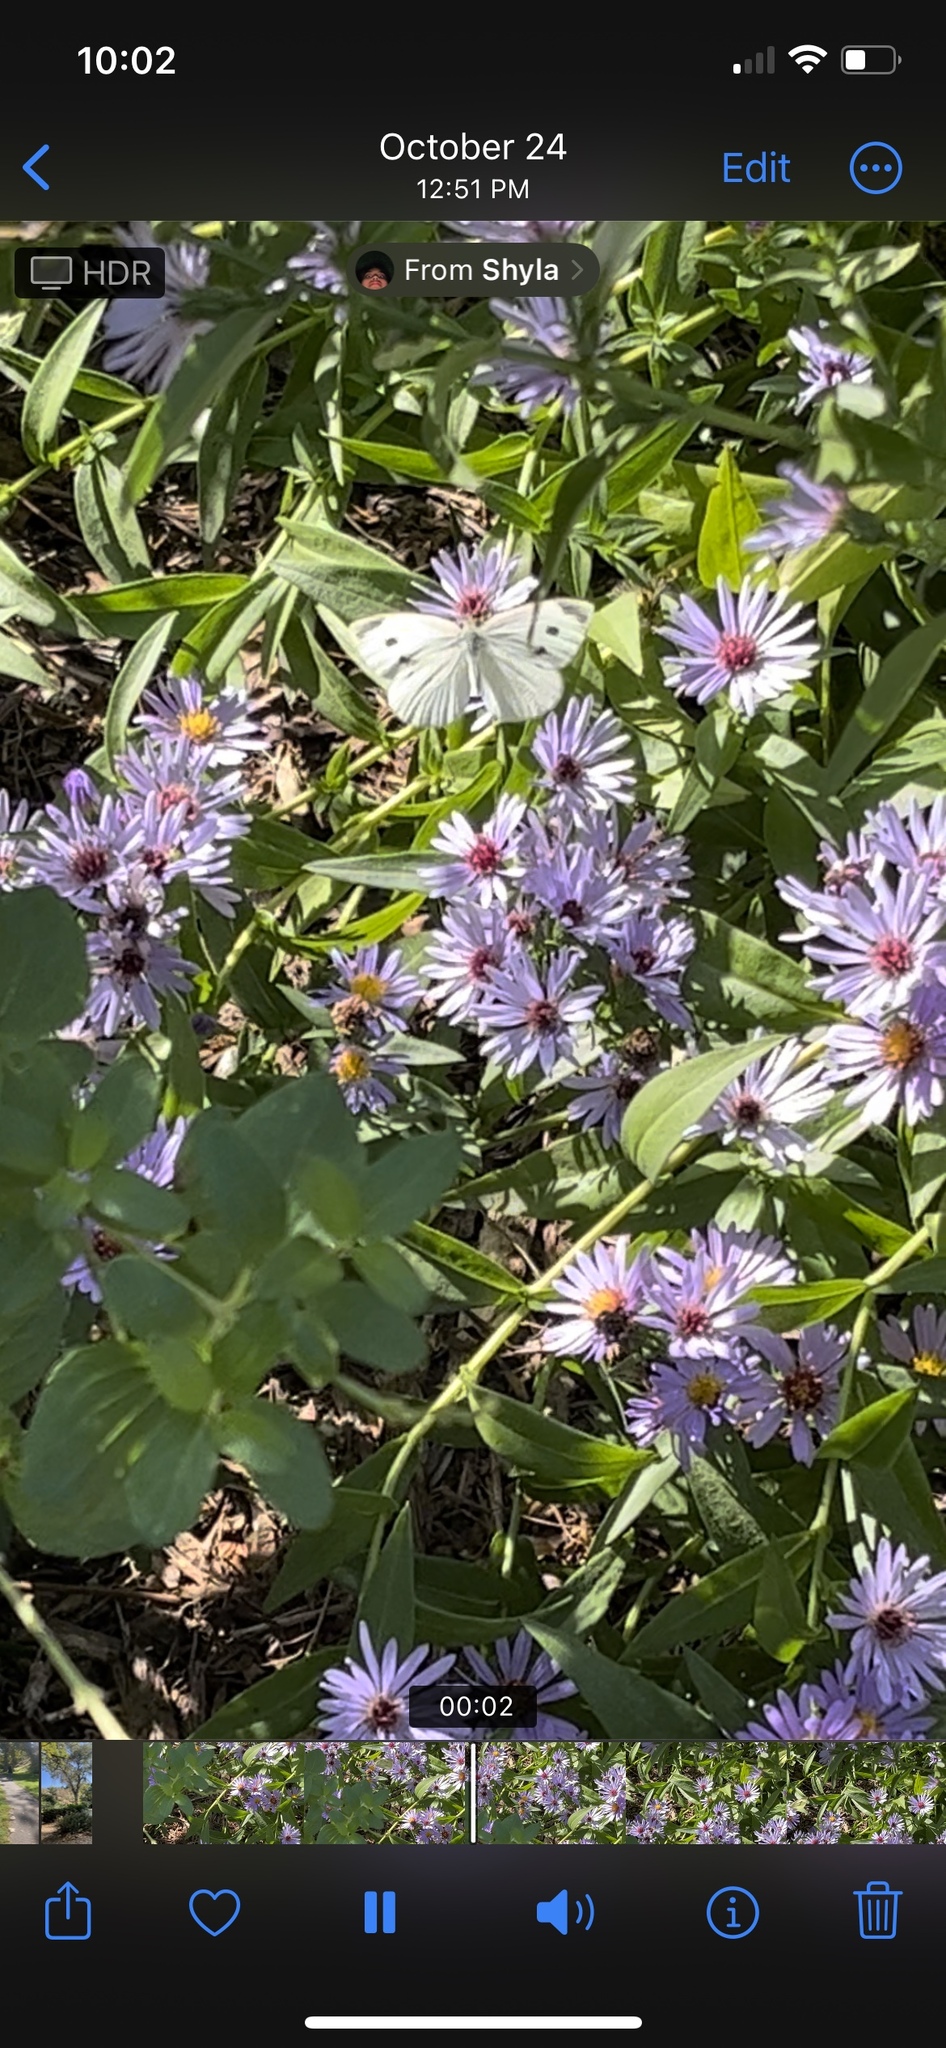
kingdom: Animalia
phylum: Arthropoda
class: Insecta
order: Lepidoptera
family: Pieridae
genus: Pieris
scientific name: Pieris rapae
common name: Small white
